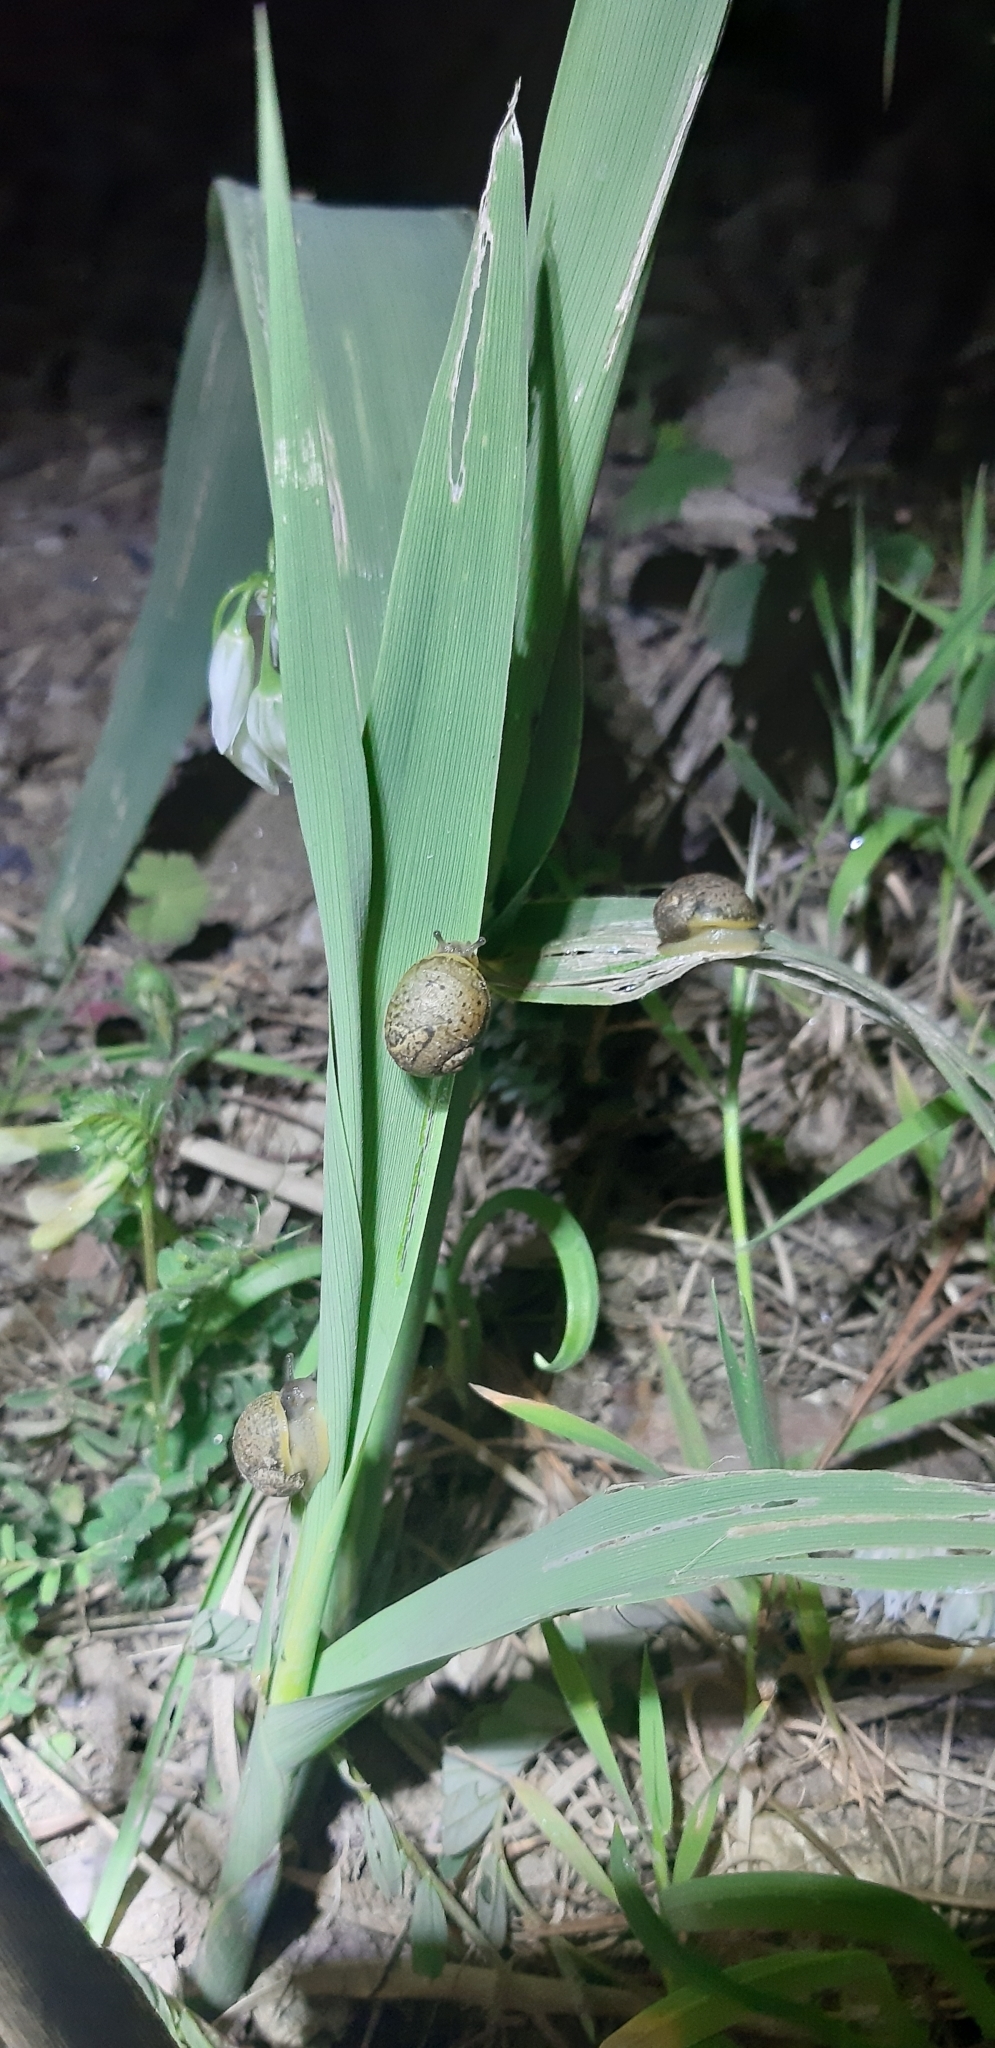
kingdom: Animalia
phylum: Mollusca
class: Gastropoda
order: Stylommatophora
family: Helicidae
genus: Cantareus
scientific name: Cantareus apertus
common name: Green gardensnail
